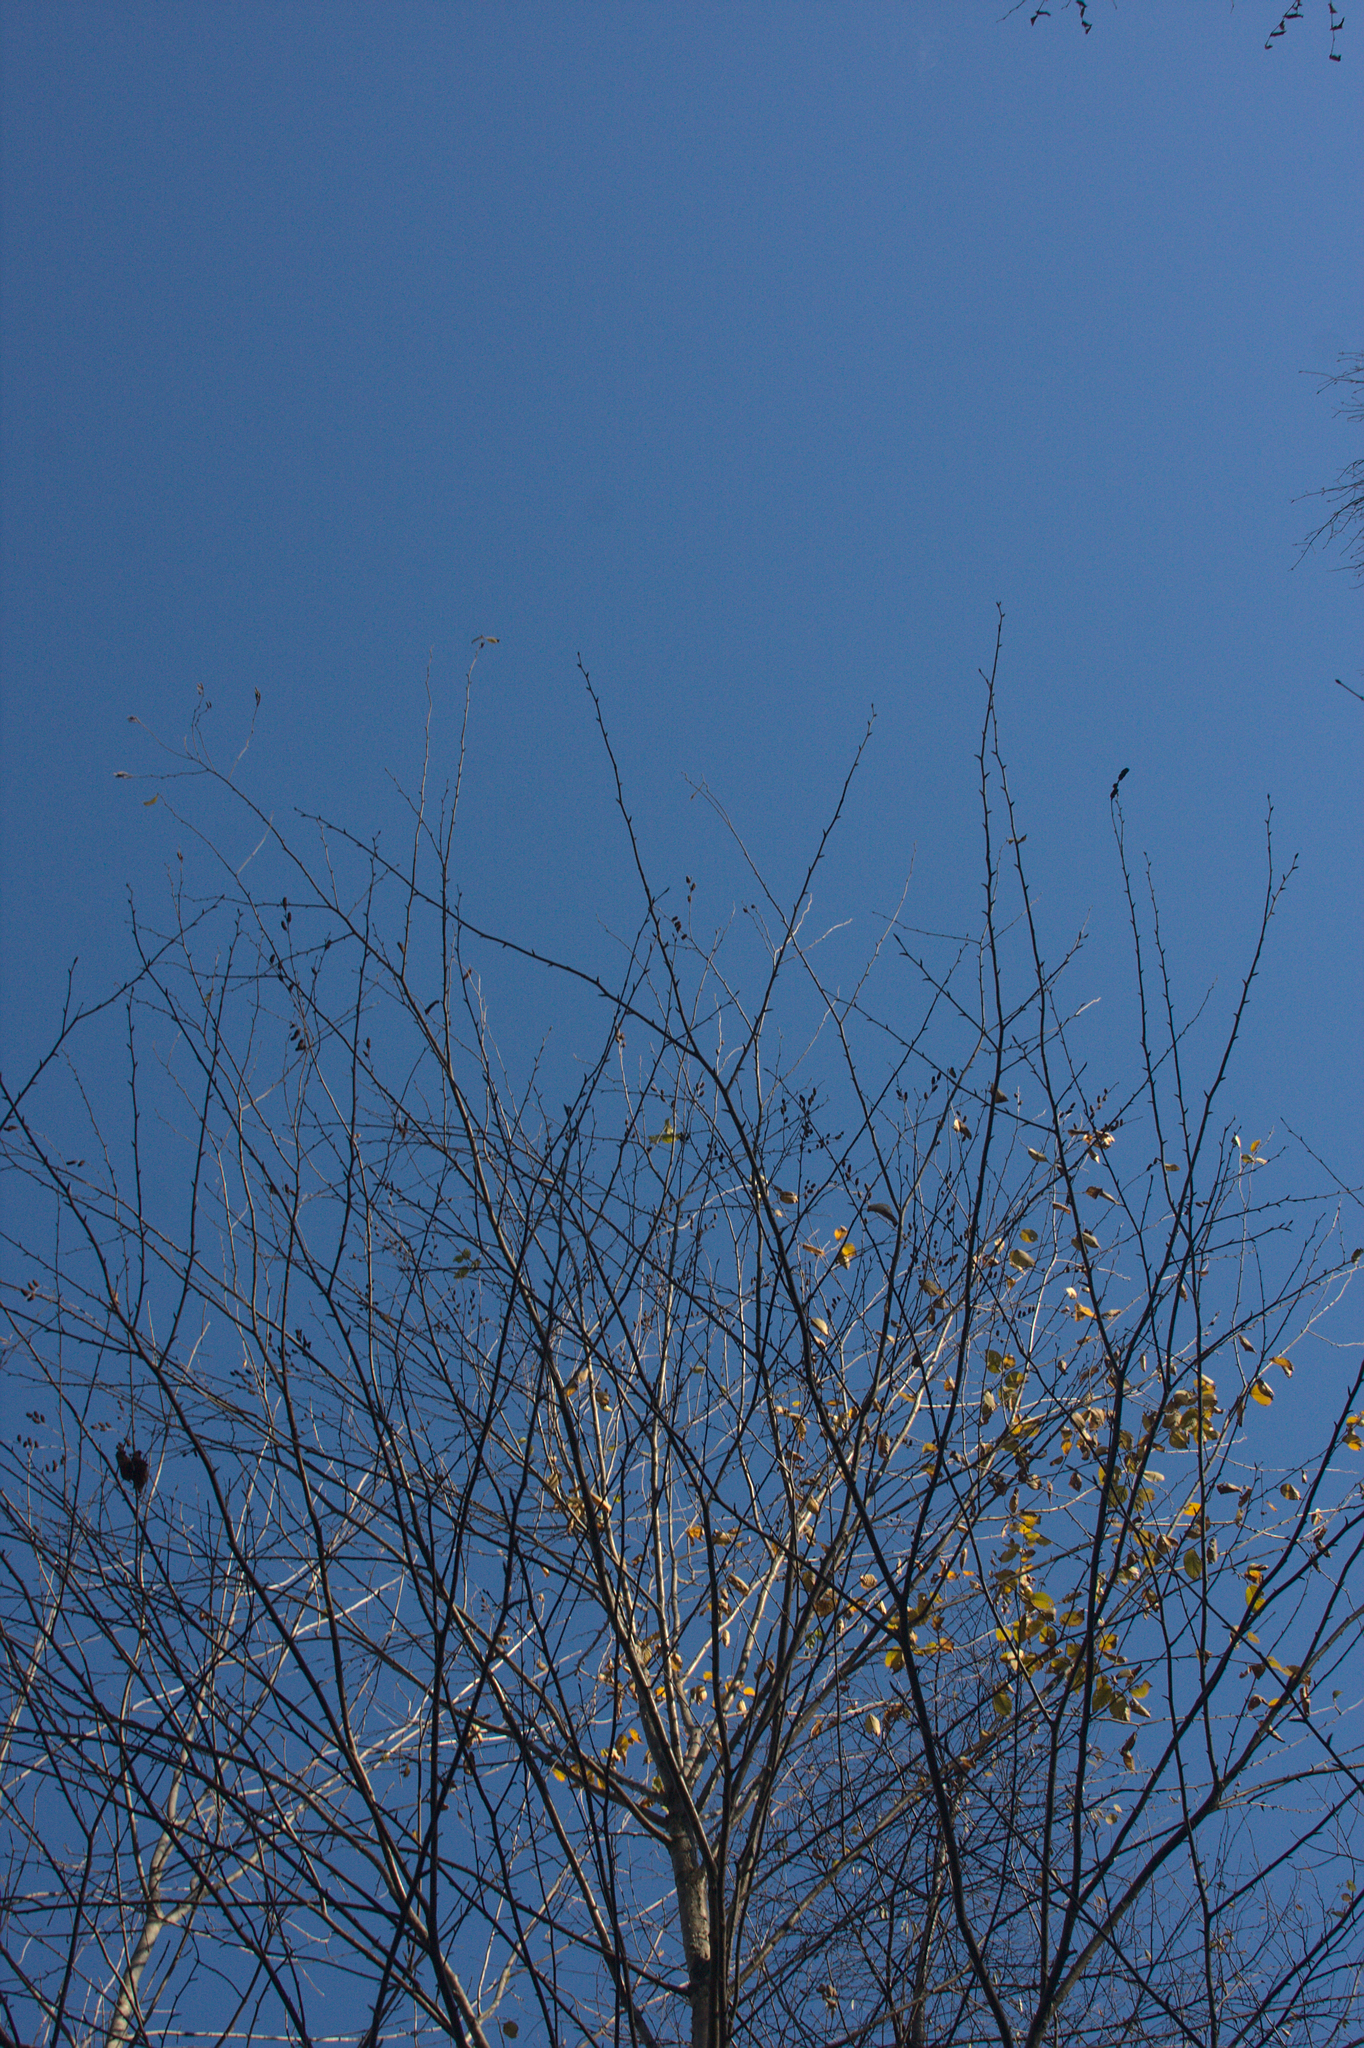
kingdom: Plantae
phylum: Tracheophyta
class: Magnoliopsida
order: Fagales
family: Betulaceae
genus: Betula
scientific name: Betula alleghaniensis
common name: Yellow birch
